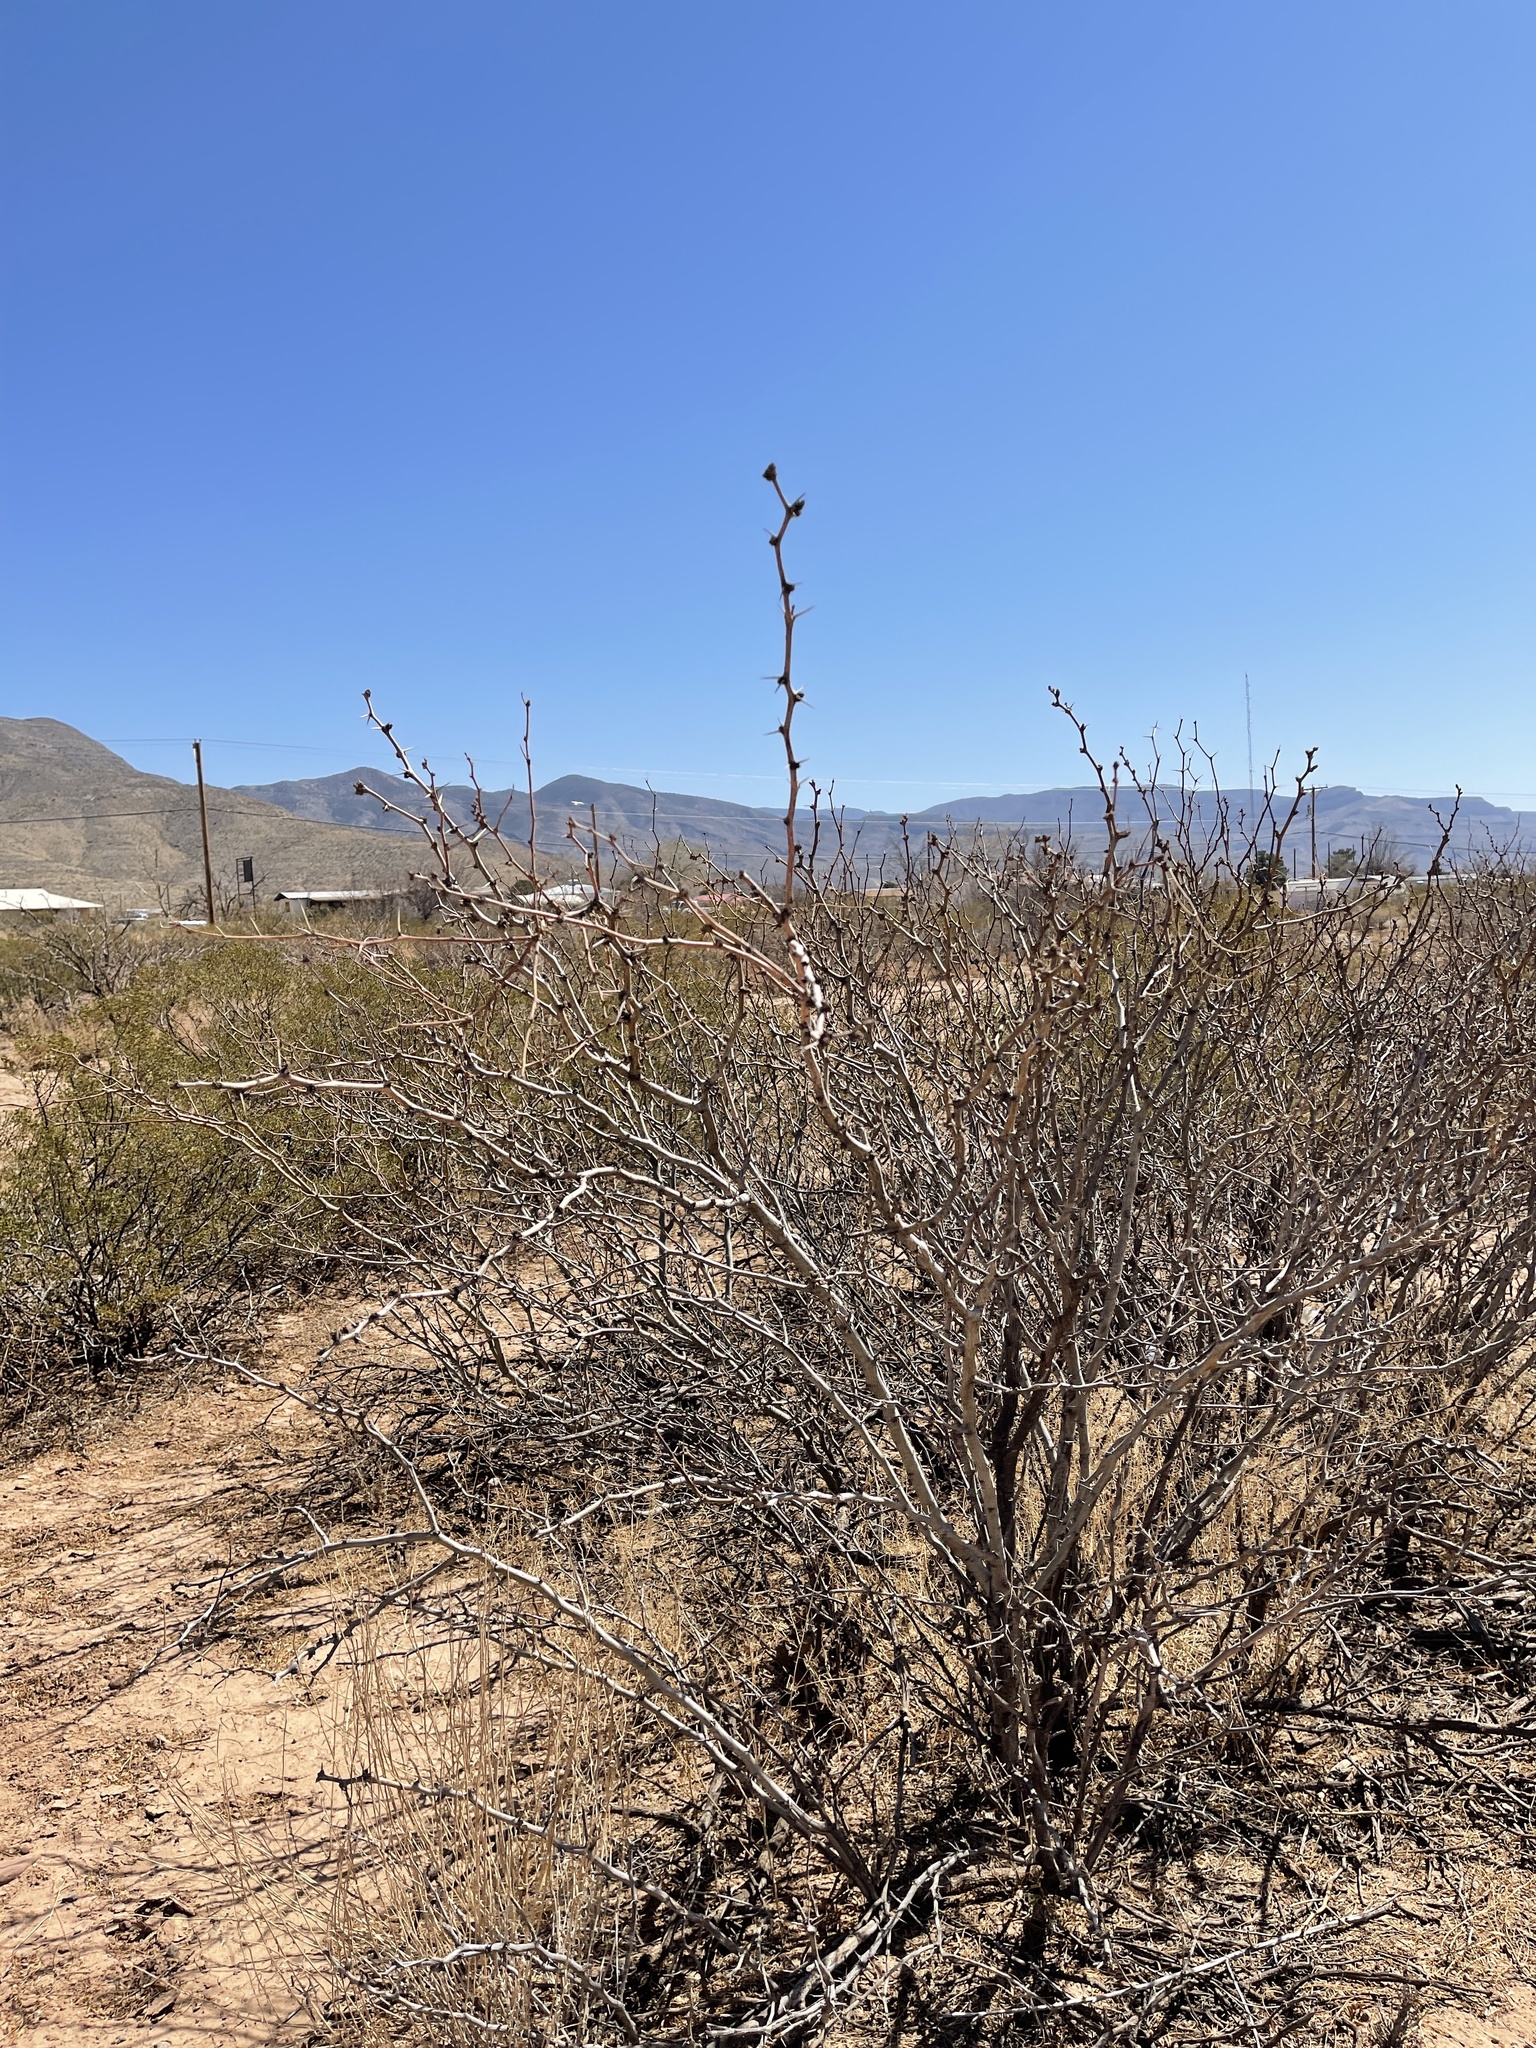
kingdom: Plantae
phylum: Tracheophyta
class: Magnoliopsida
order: Fabales
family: Fabaceae
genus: Prosopis
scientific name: Prosopis glandulosa
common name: Honey mesquite
